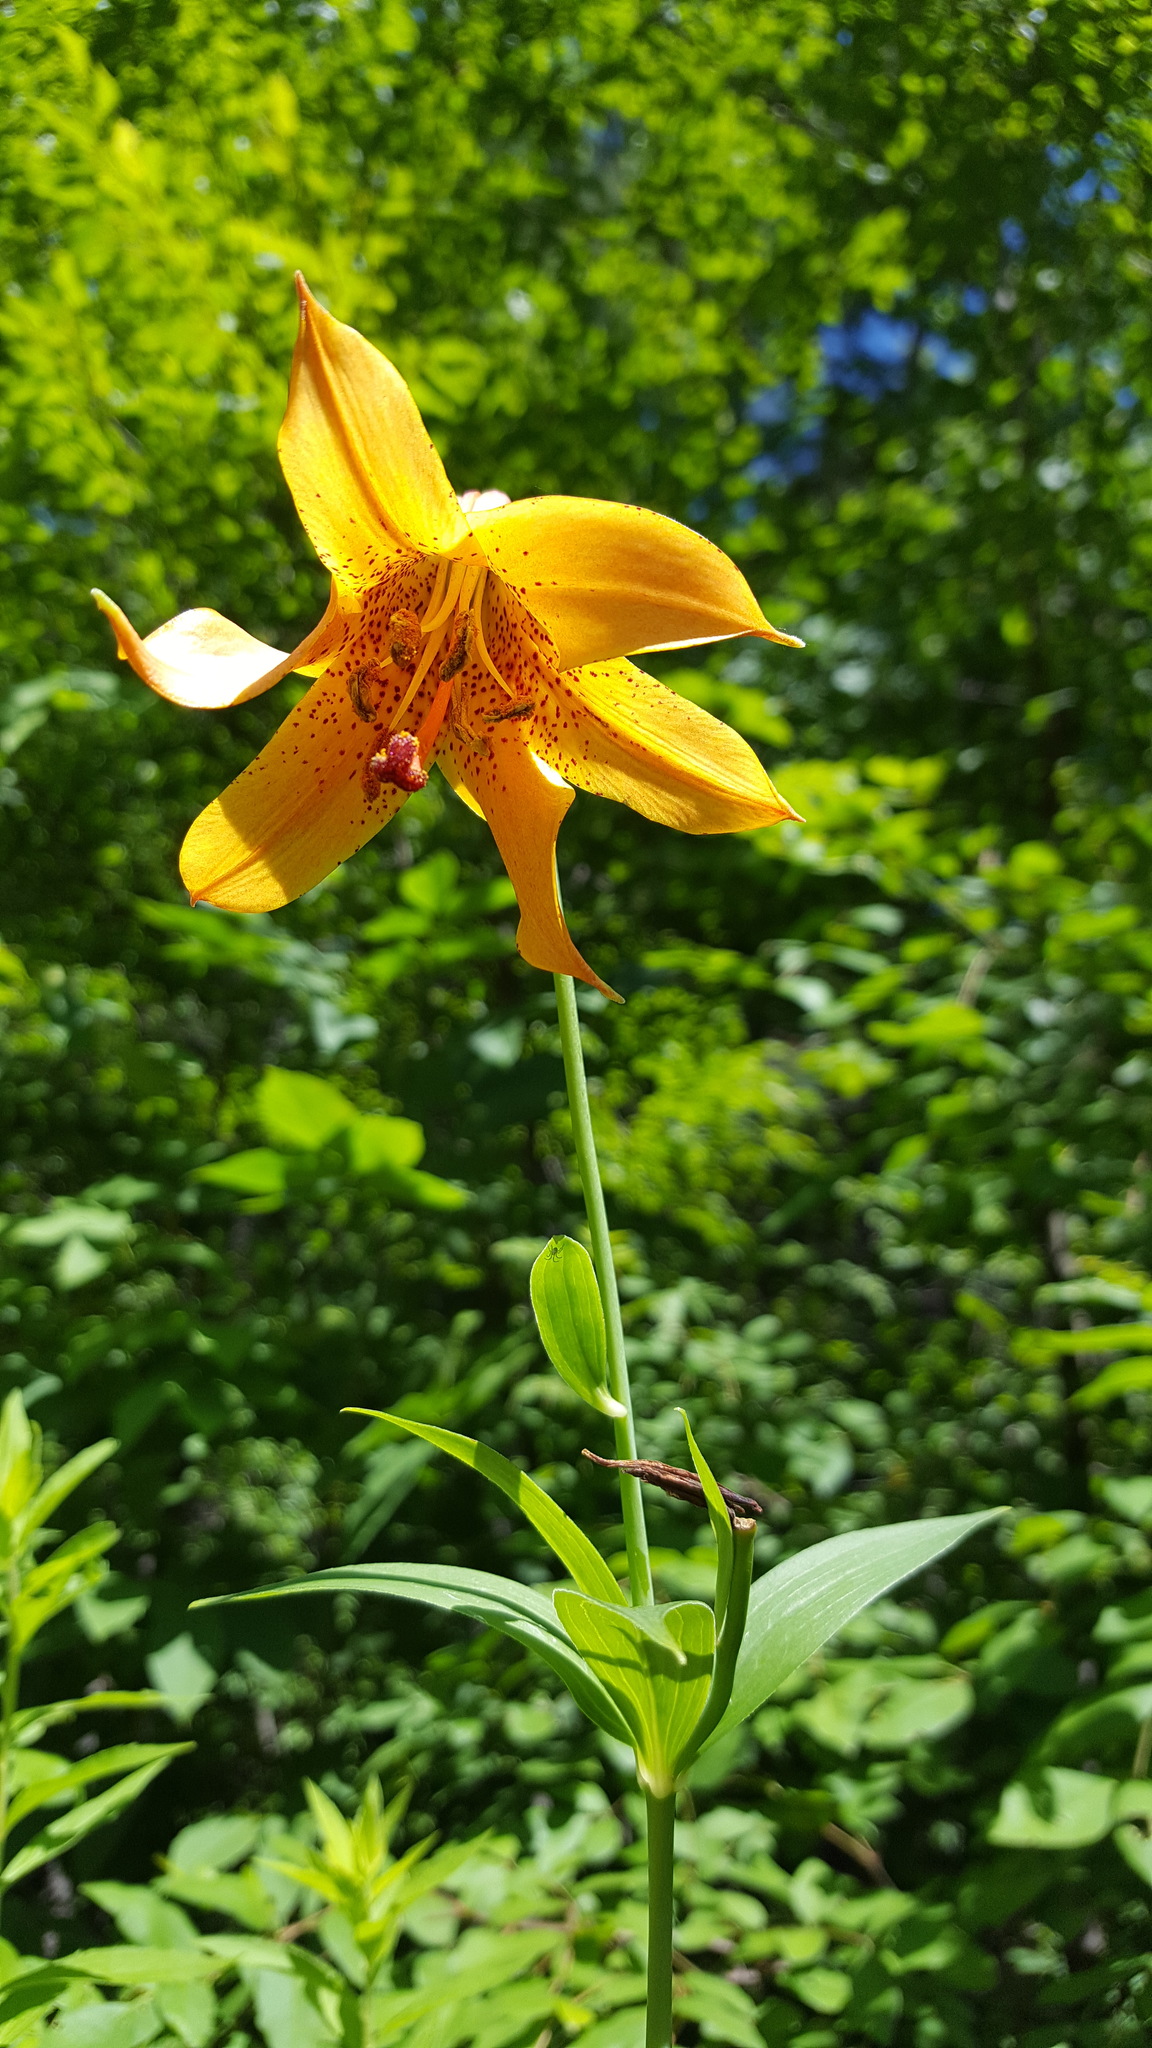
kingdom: Plantae
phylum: Tracheophyta
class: Liliopsida
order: Liliales
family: Liliaceae
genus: Lilium
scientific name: Lilium canadense
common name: Canada lily
